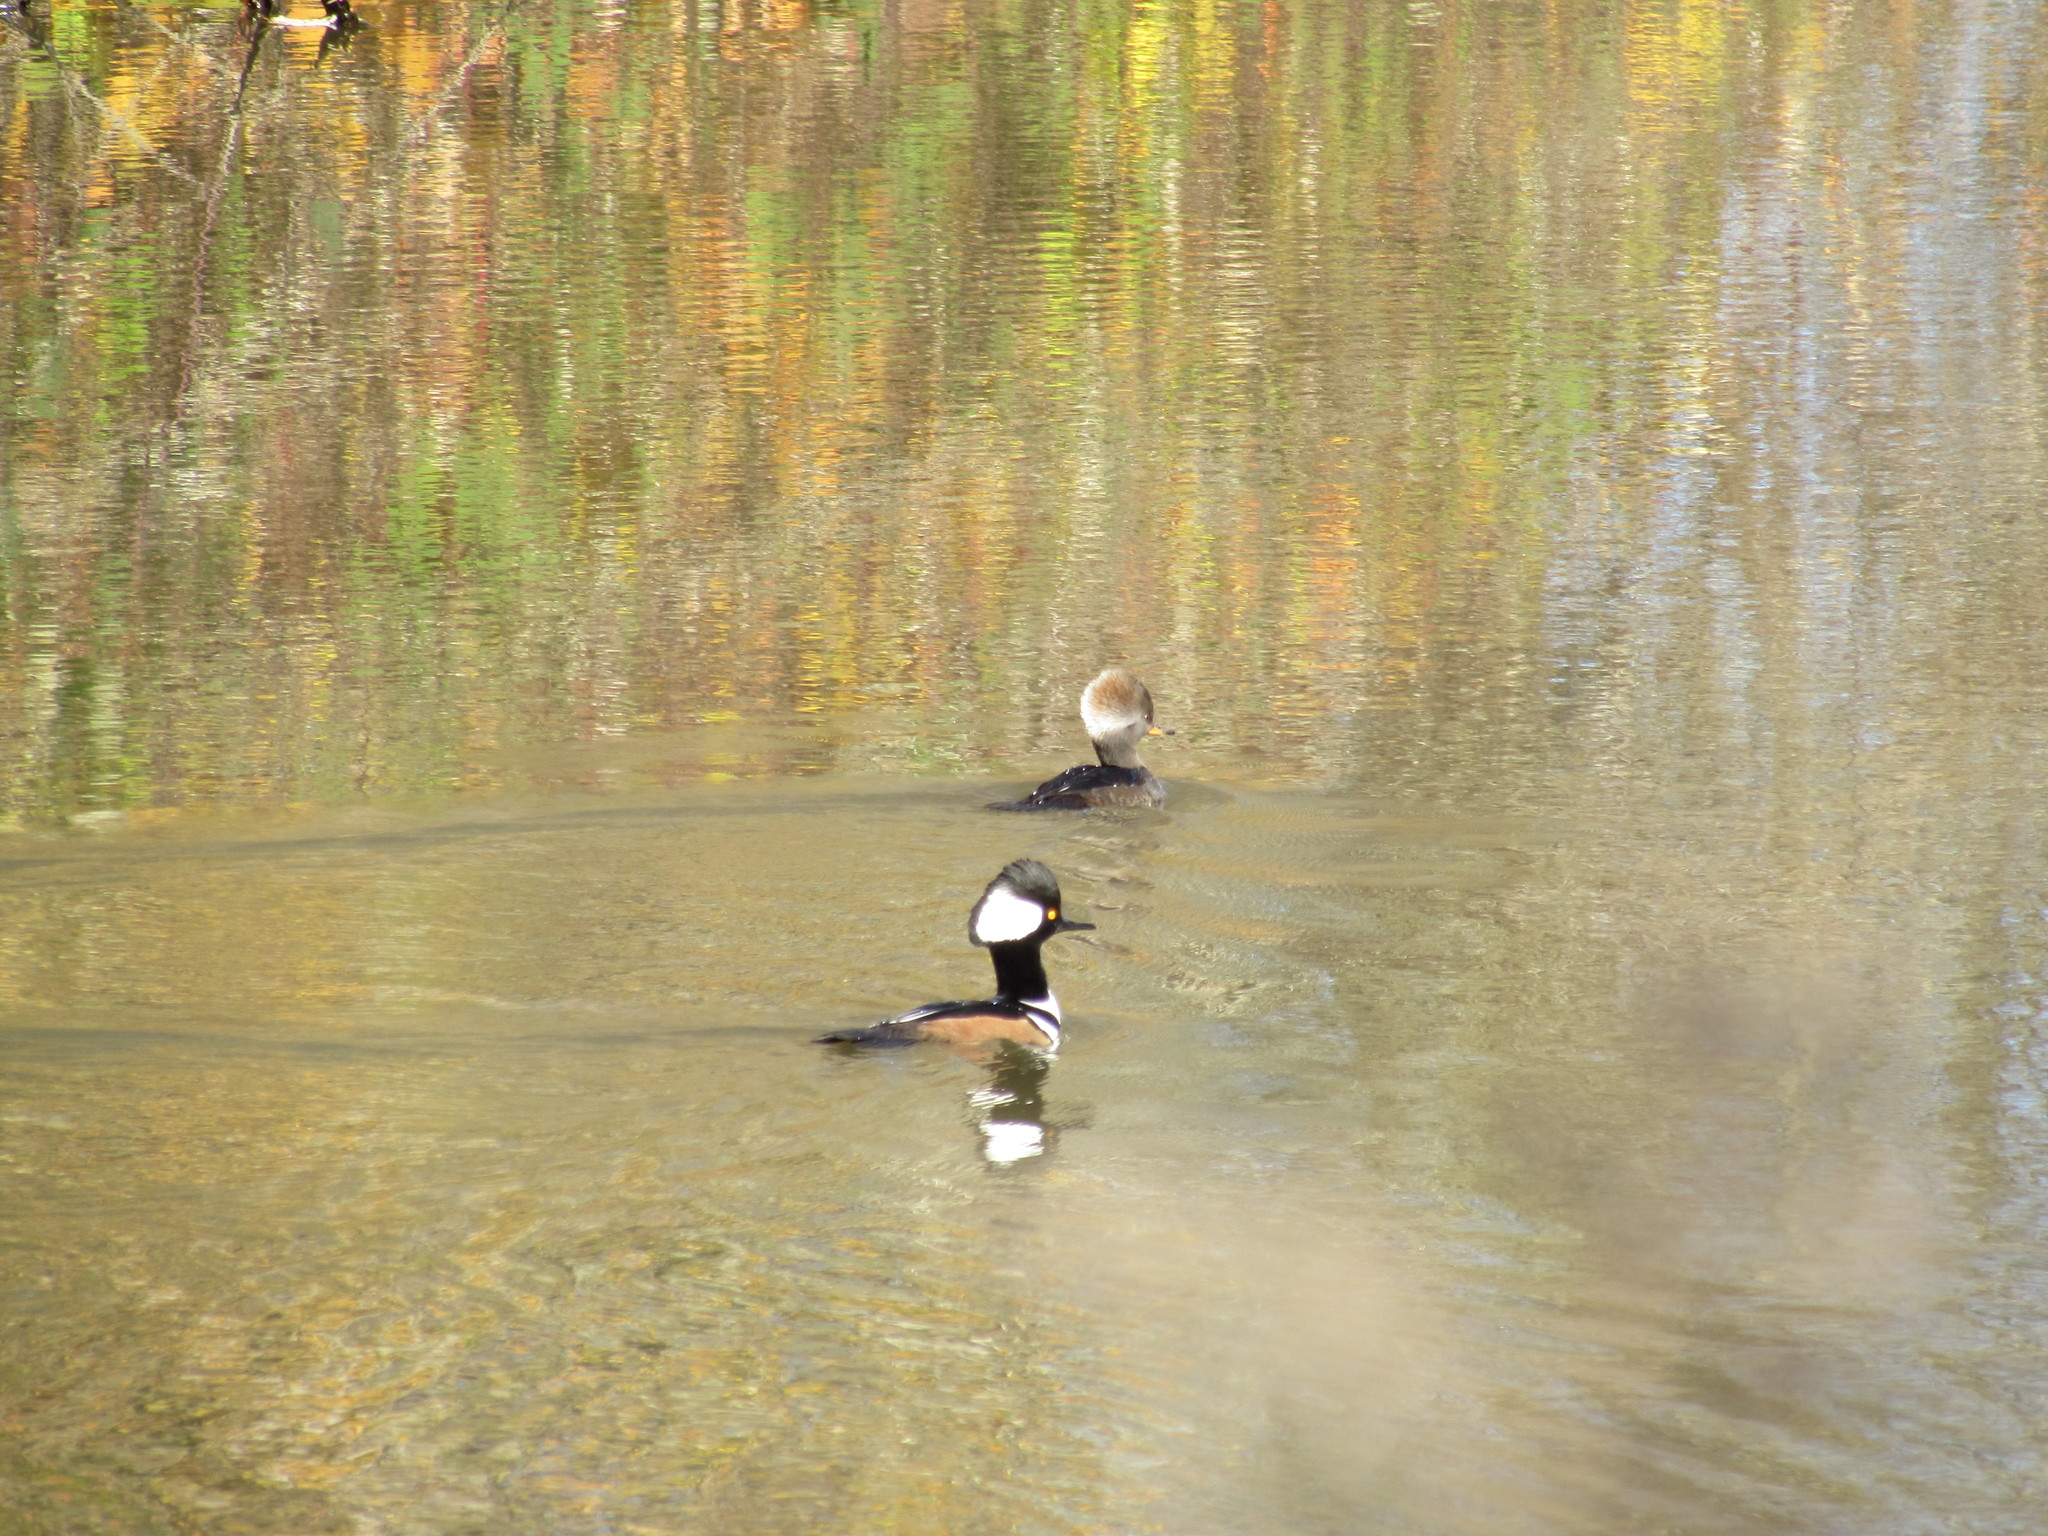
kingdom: Animalia
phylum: Chordata
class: Aves
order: Anseriformes
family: Anatidae
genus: Lophodytes
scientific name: Lophodytes cucullatus
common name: Hooded merganser
